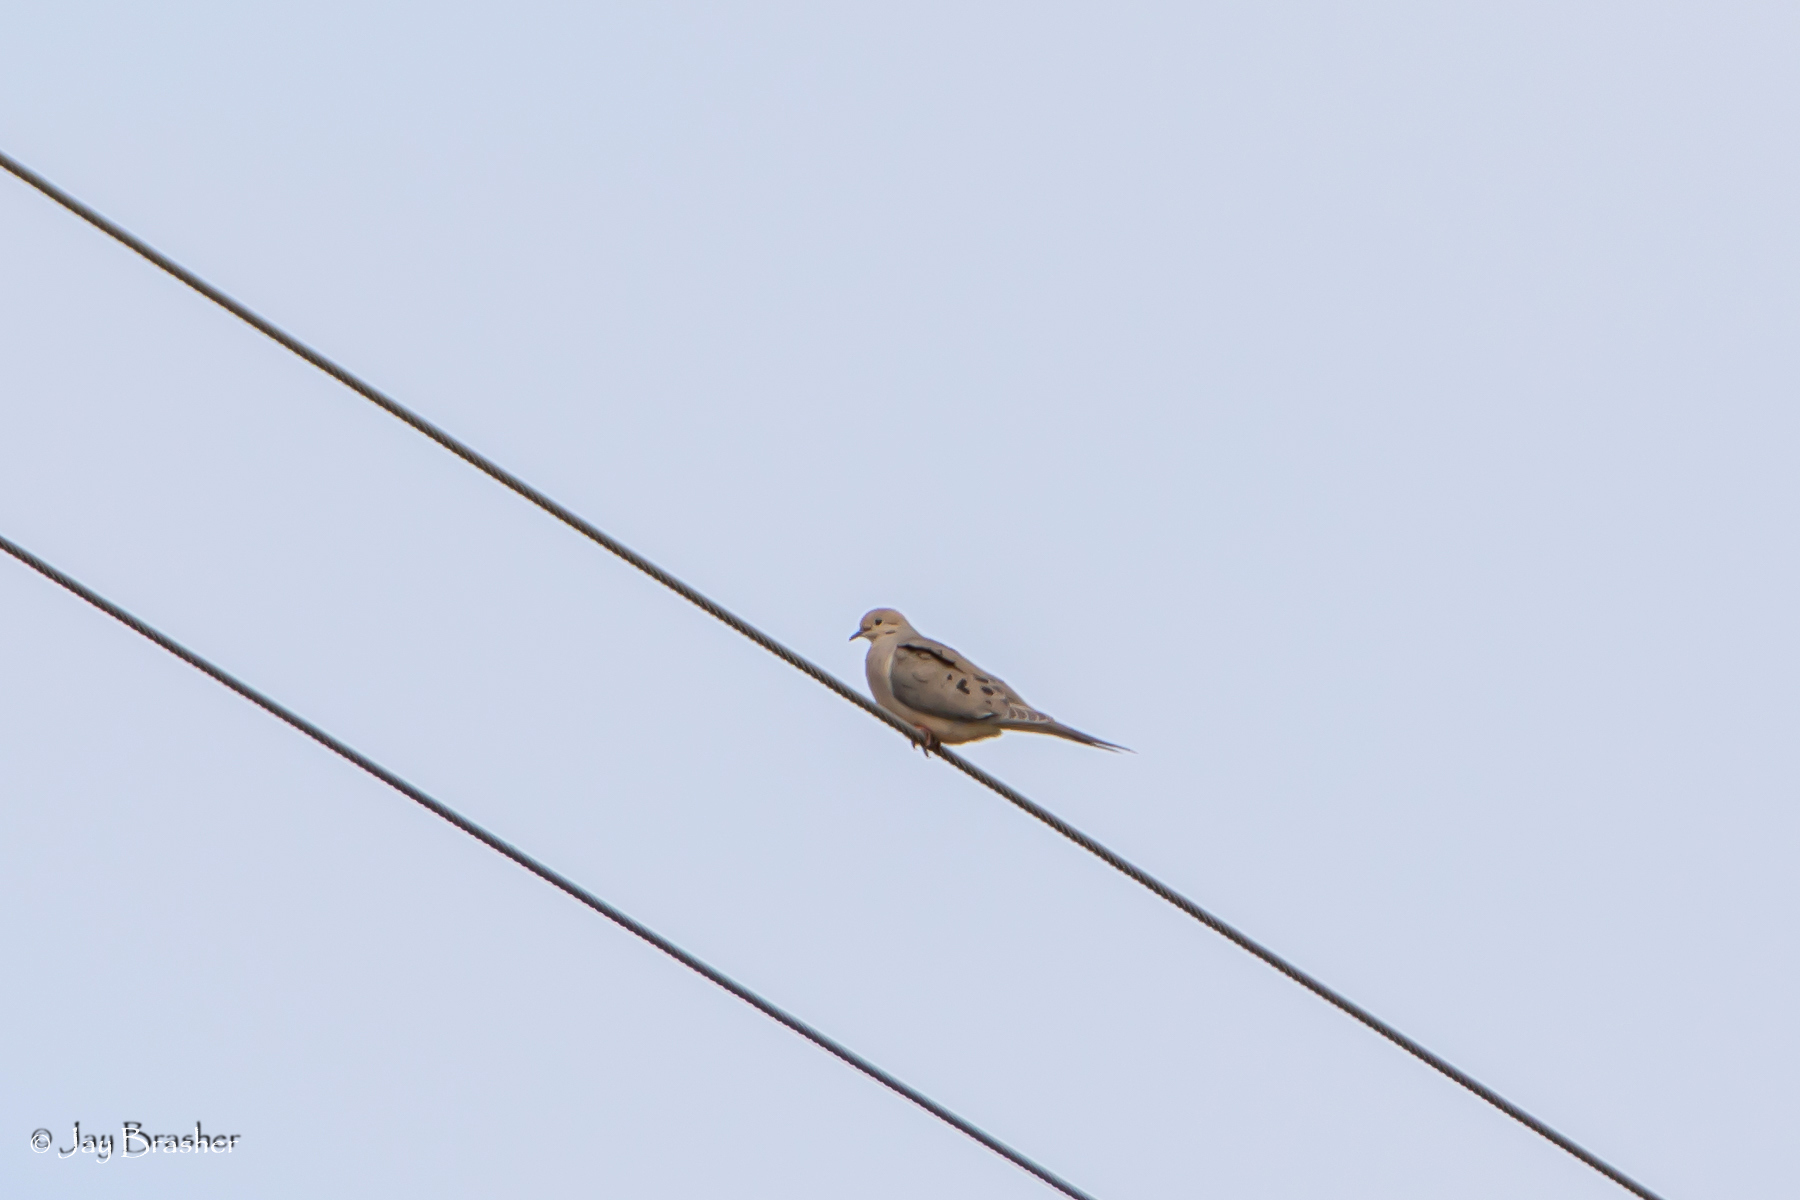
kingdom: Animalia
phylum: Chordata
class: Aves
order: Columbiformes
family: Columbidae
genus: Zenaida
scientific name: Zenaida macroura
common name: Mourning dove
